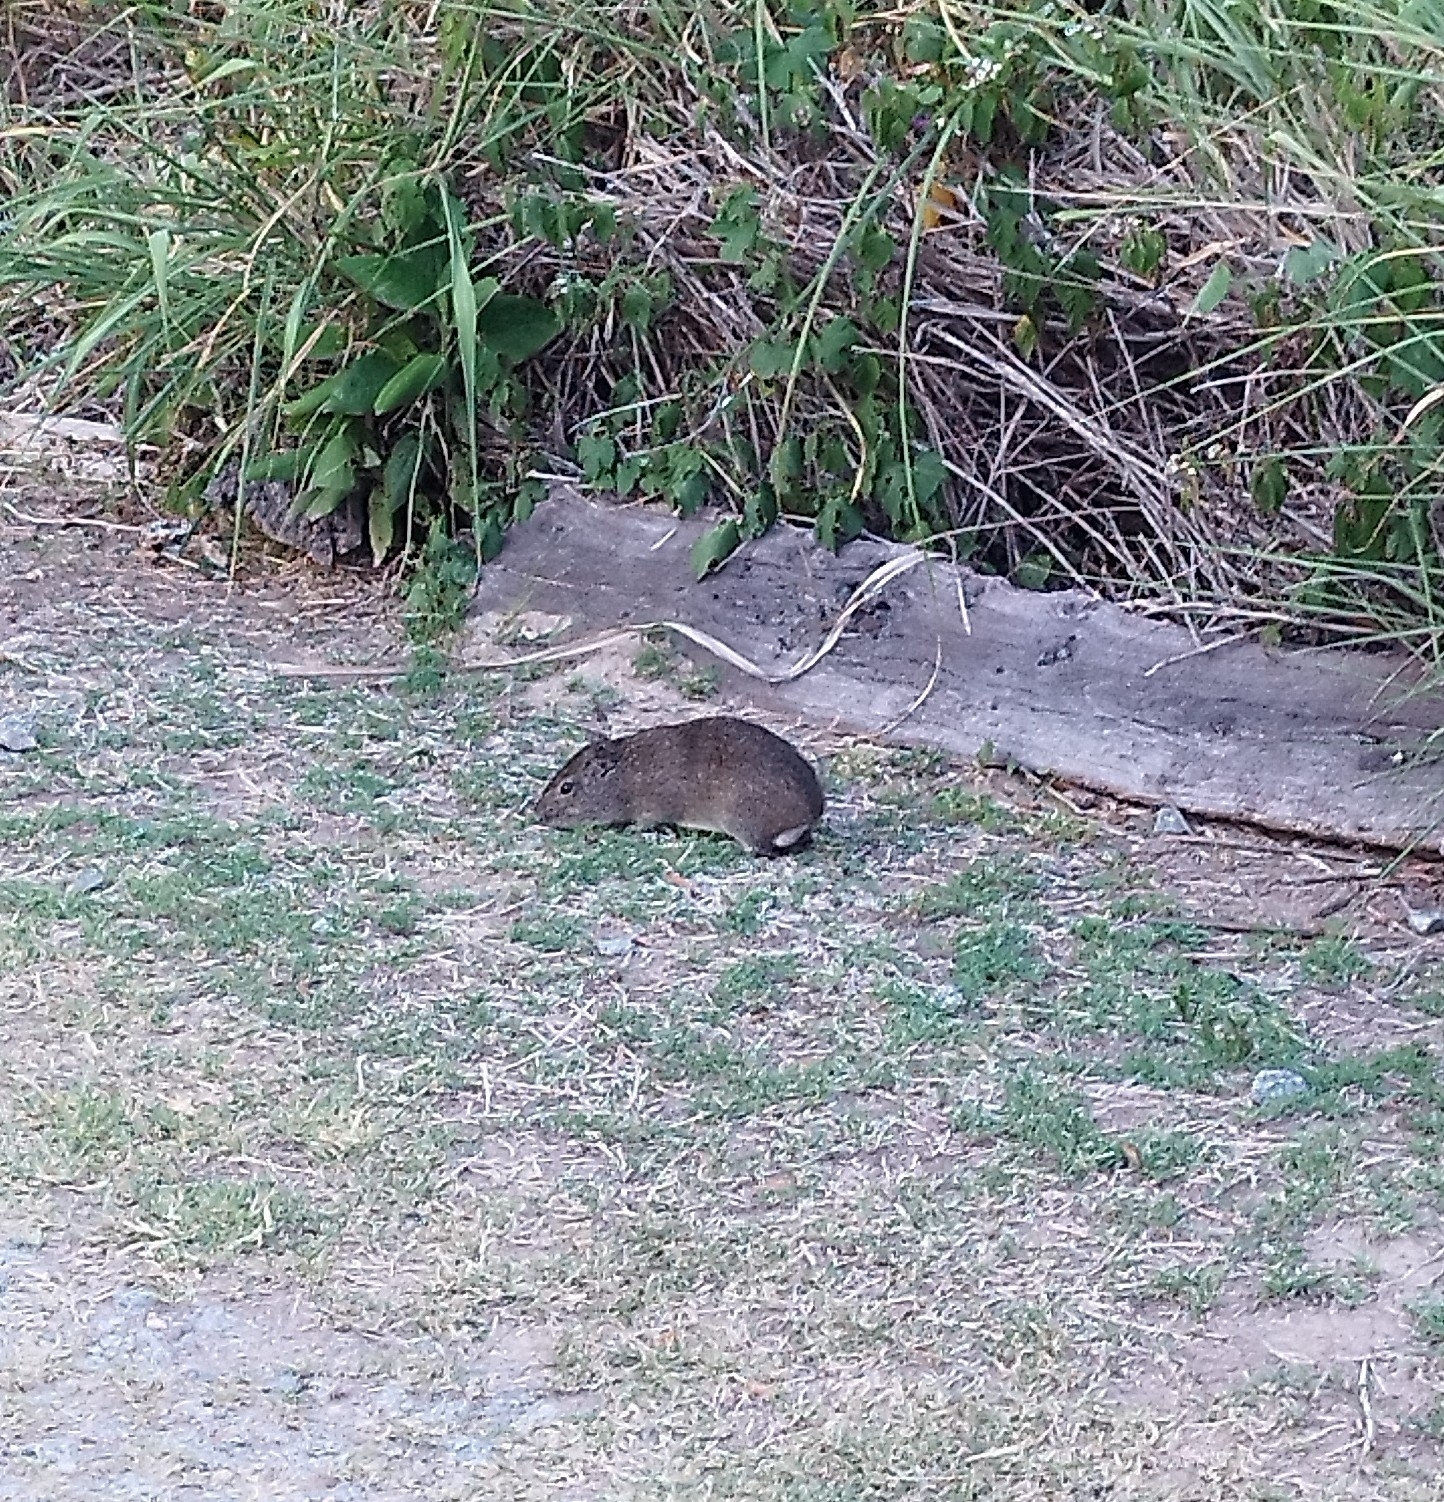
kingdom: Animalia
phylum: Chordata
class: Mammalia
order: Rodentia
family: Caviidae
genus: Cavia
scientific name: Cavia aperea
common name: Brazilian guinea pig
